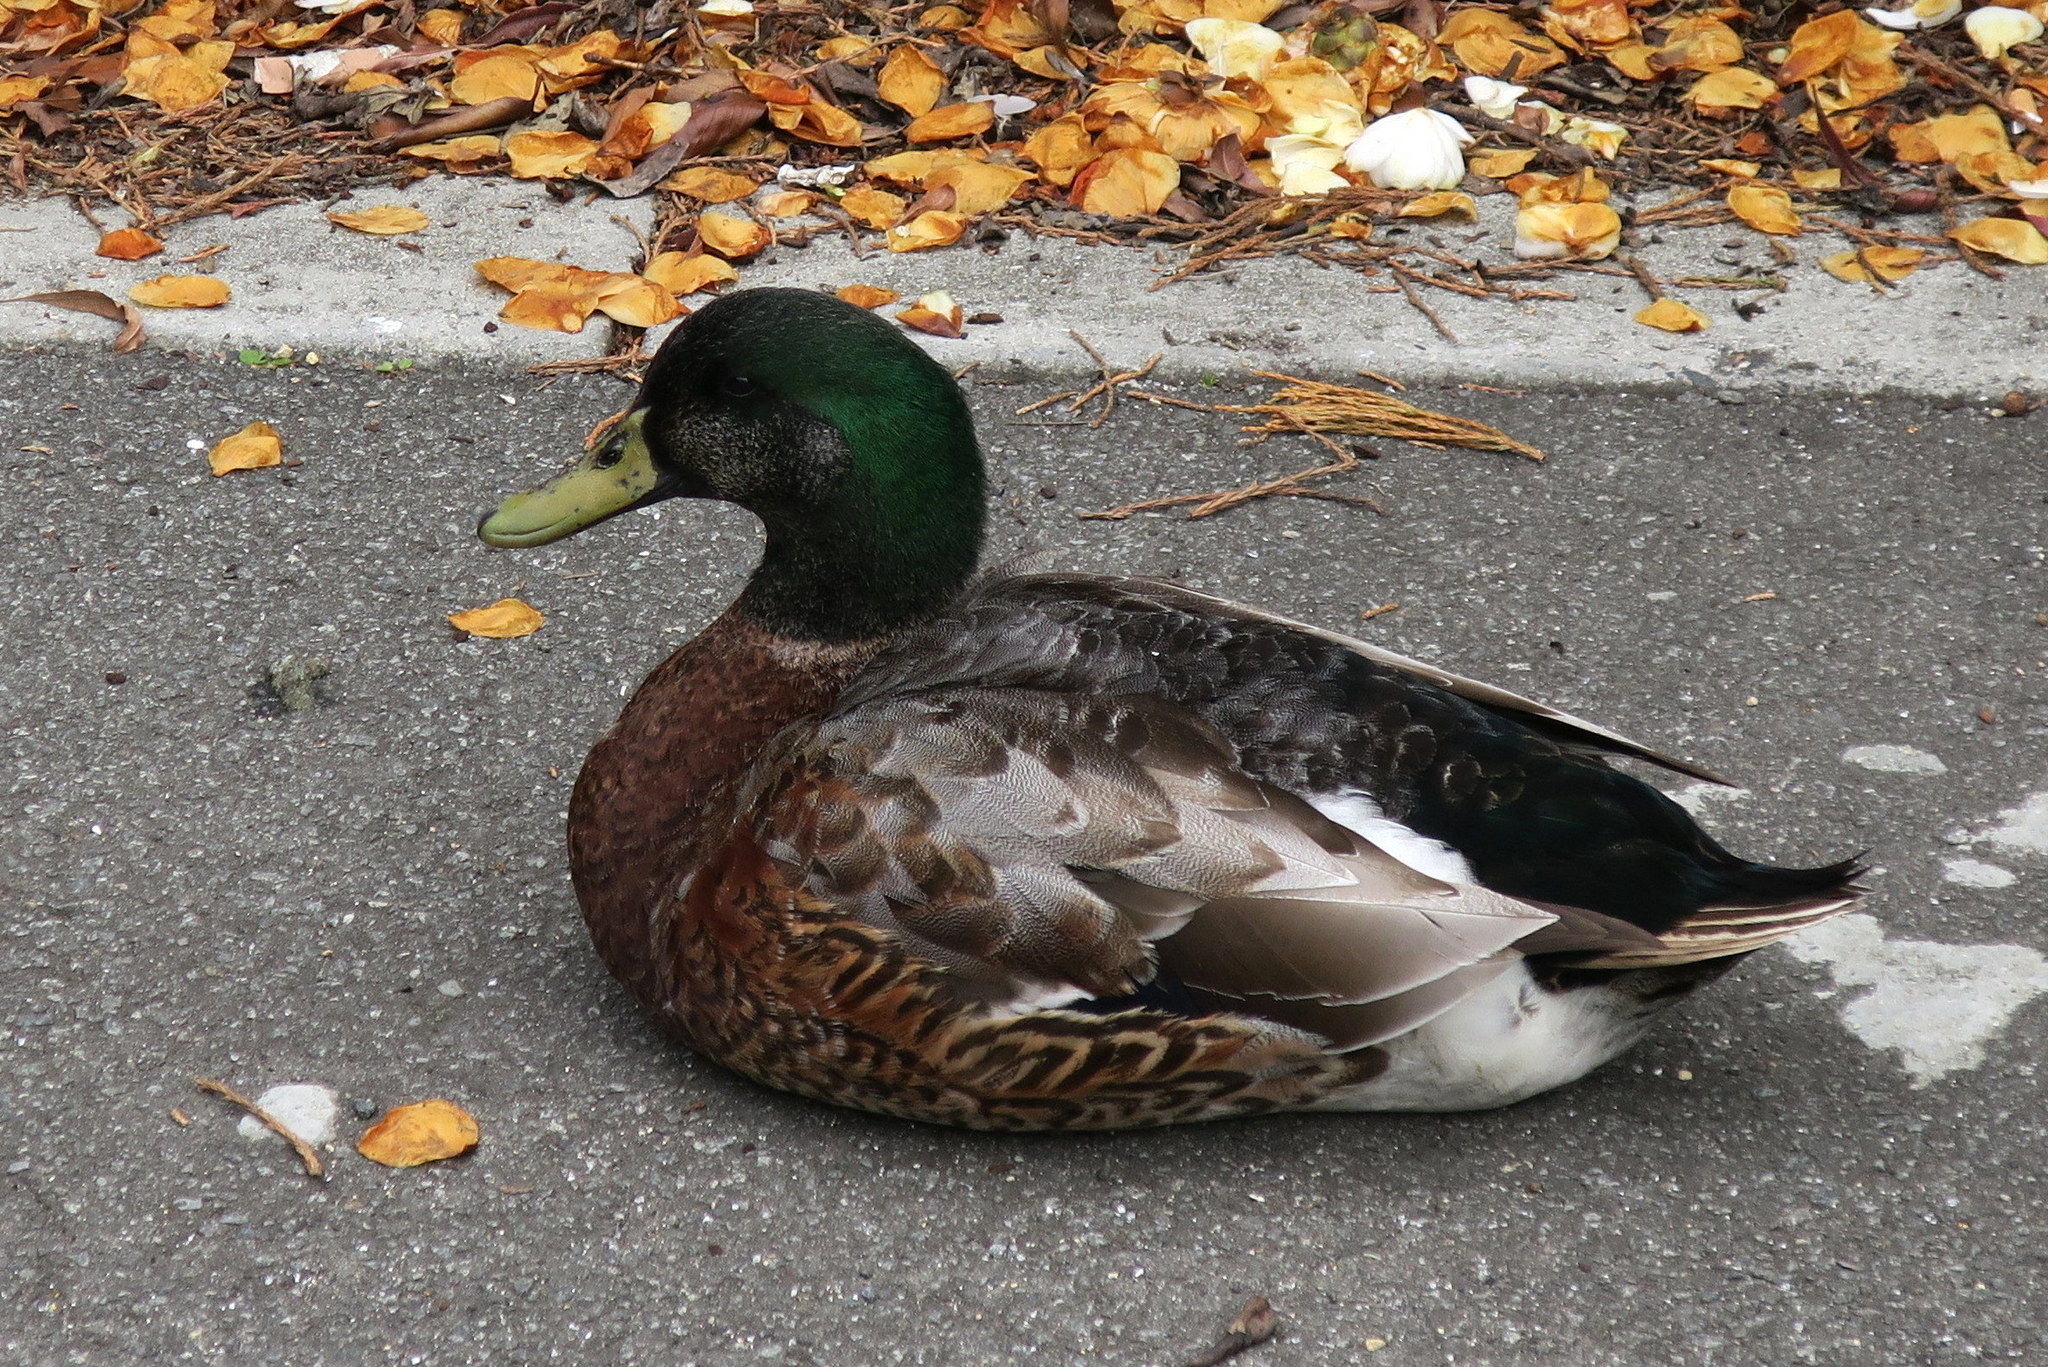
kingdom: Animalia
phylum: Chordata
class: Aves
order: Anseriformes
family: Anatidae
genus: Anas
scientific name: Anas platyrhynchos
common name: Mallard
